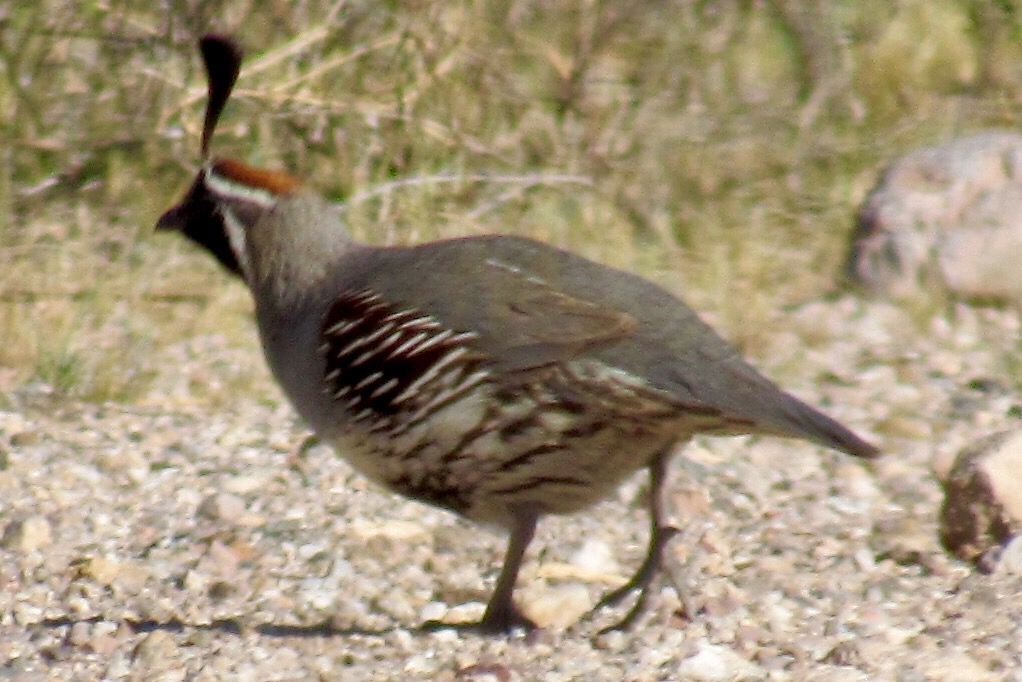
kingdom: Animalia
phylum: Chordata
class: Aves
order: Galliformes
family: Odontophoridae
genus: Callipepla
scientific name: Callipepla gambelii
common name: Gambel's quail
